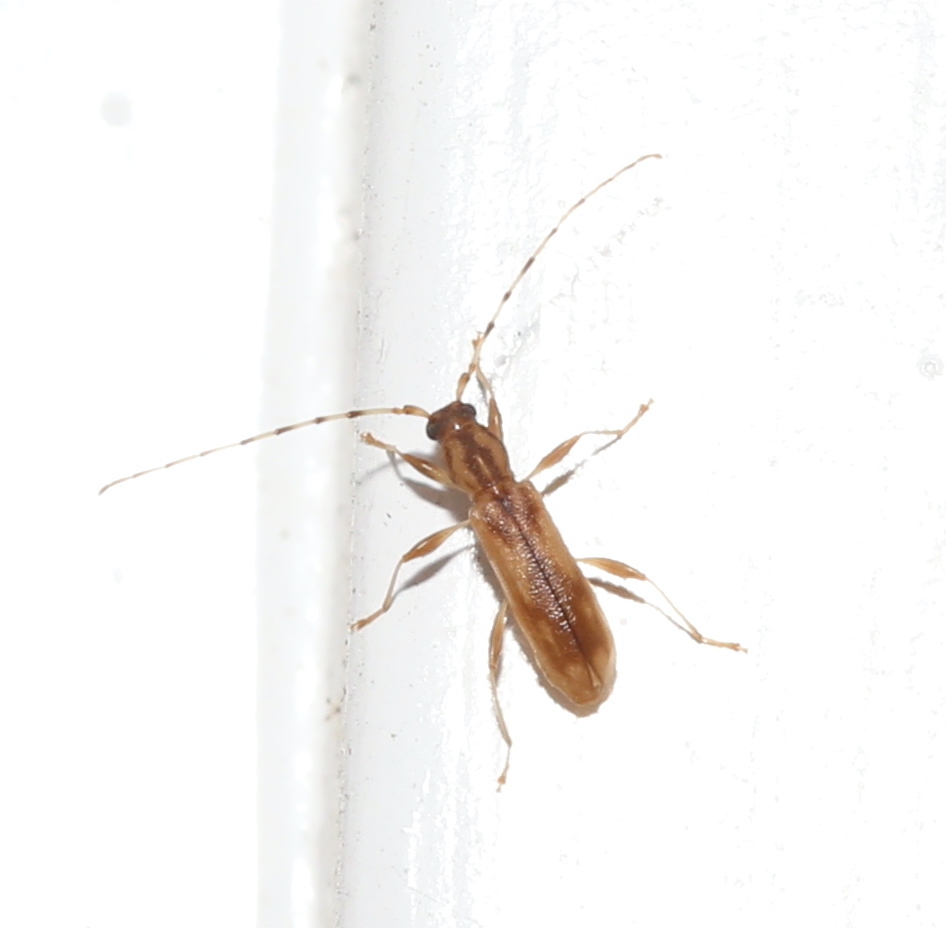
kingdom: Animalia
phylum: Arthropoda
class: Insecta
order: Coleoptera
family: Cerambycidae
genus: Curius
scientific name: Curius dentatus
